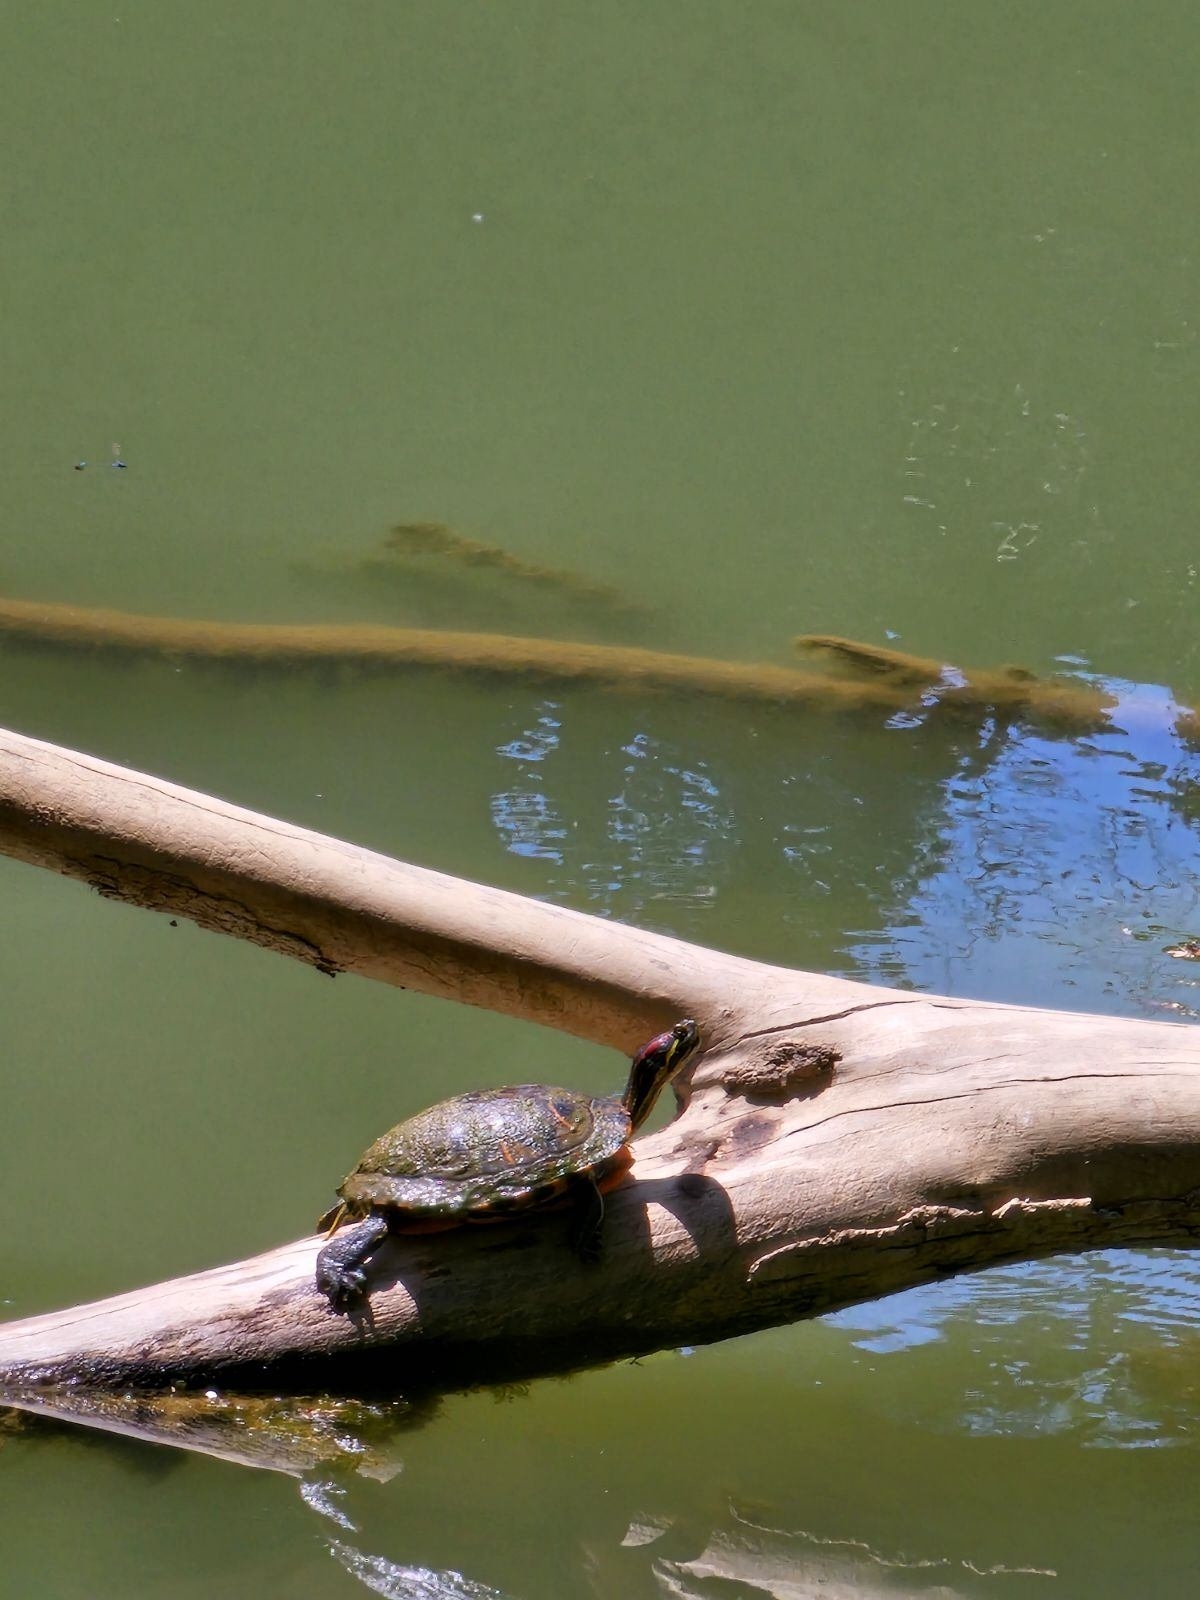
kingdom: Animalia
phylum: Chordata
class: Testudines
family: Emydidae
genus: Trachemys
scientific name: Trachemys scripta
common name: Slider
